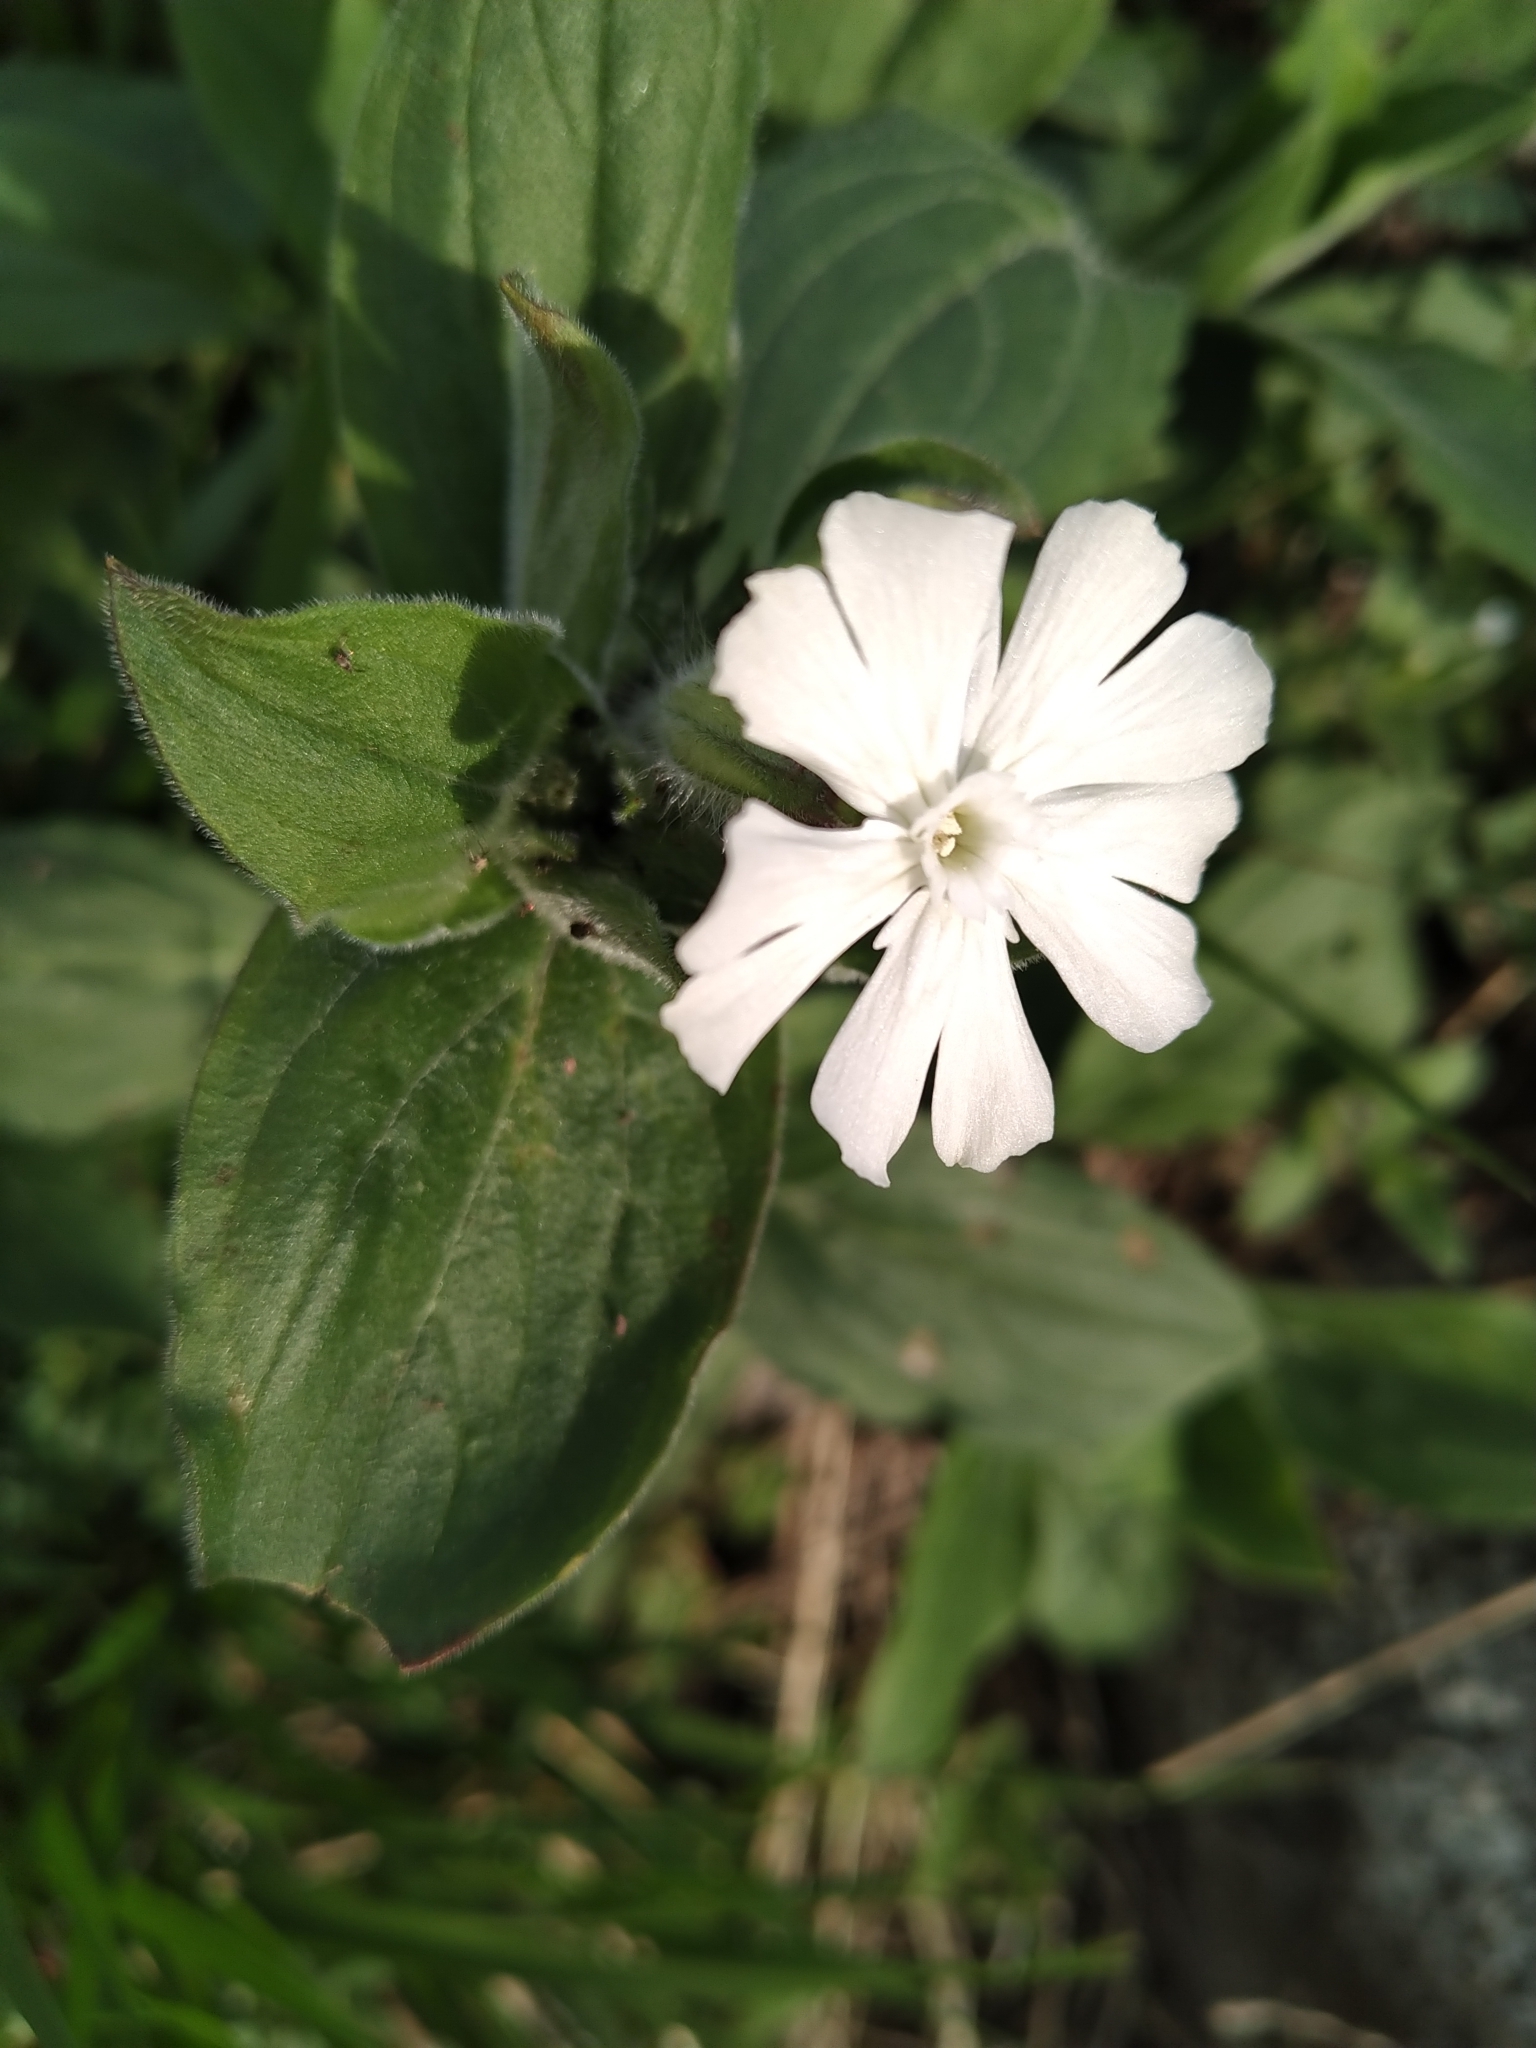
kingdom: Plantae
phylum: Tracheophyta
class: Magnoliopsida
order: Caryophyllales
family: Caryophyllaceae
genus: Silene
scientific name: Silene latifolia
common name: White campion
